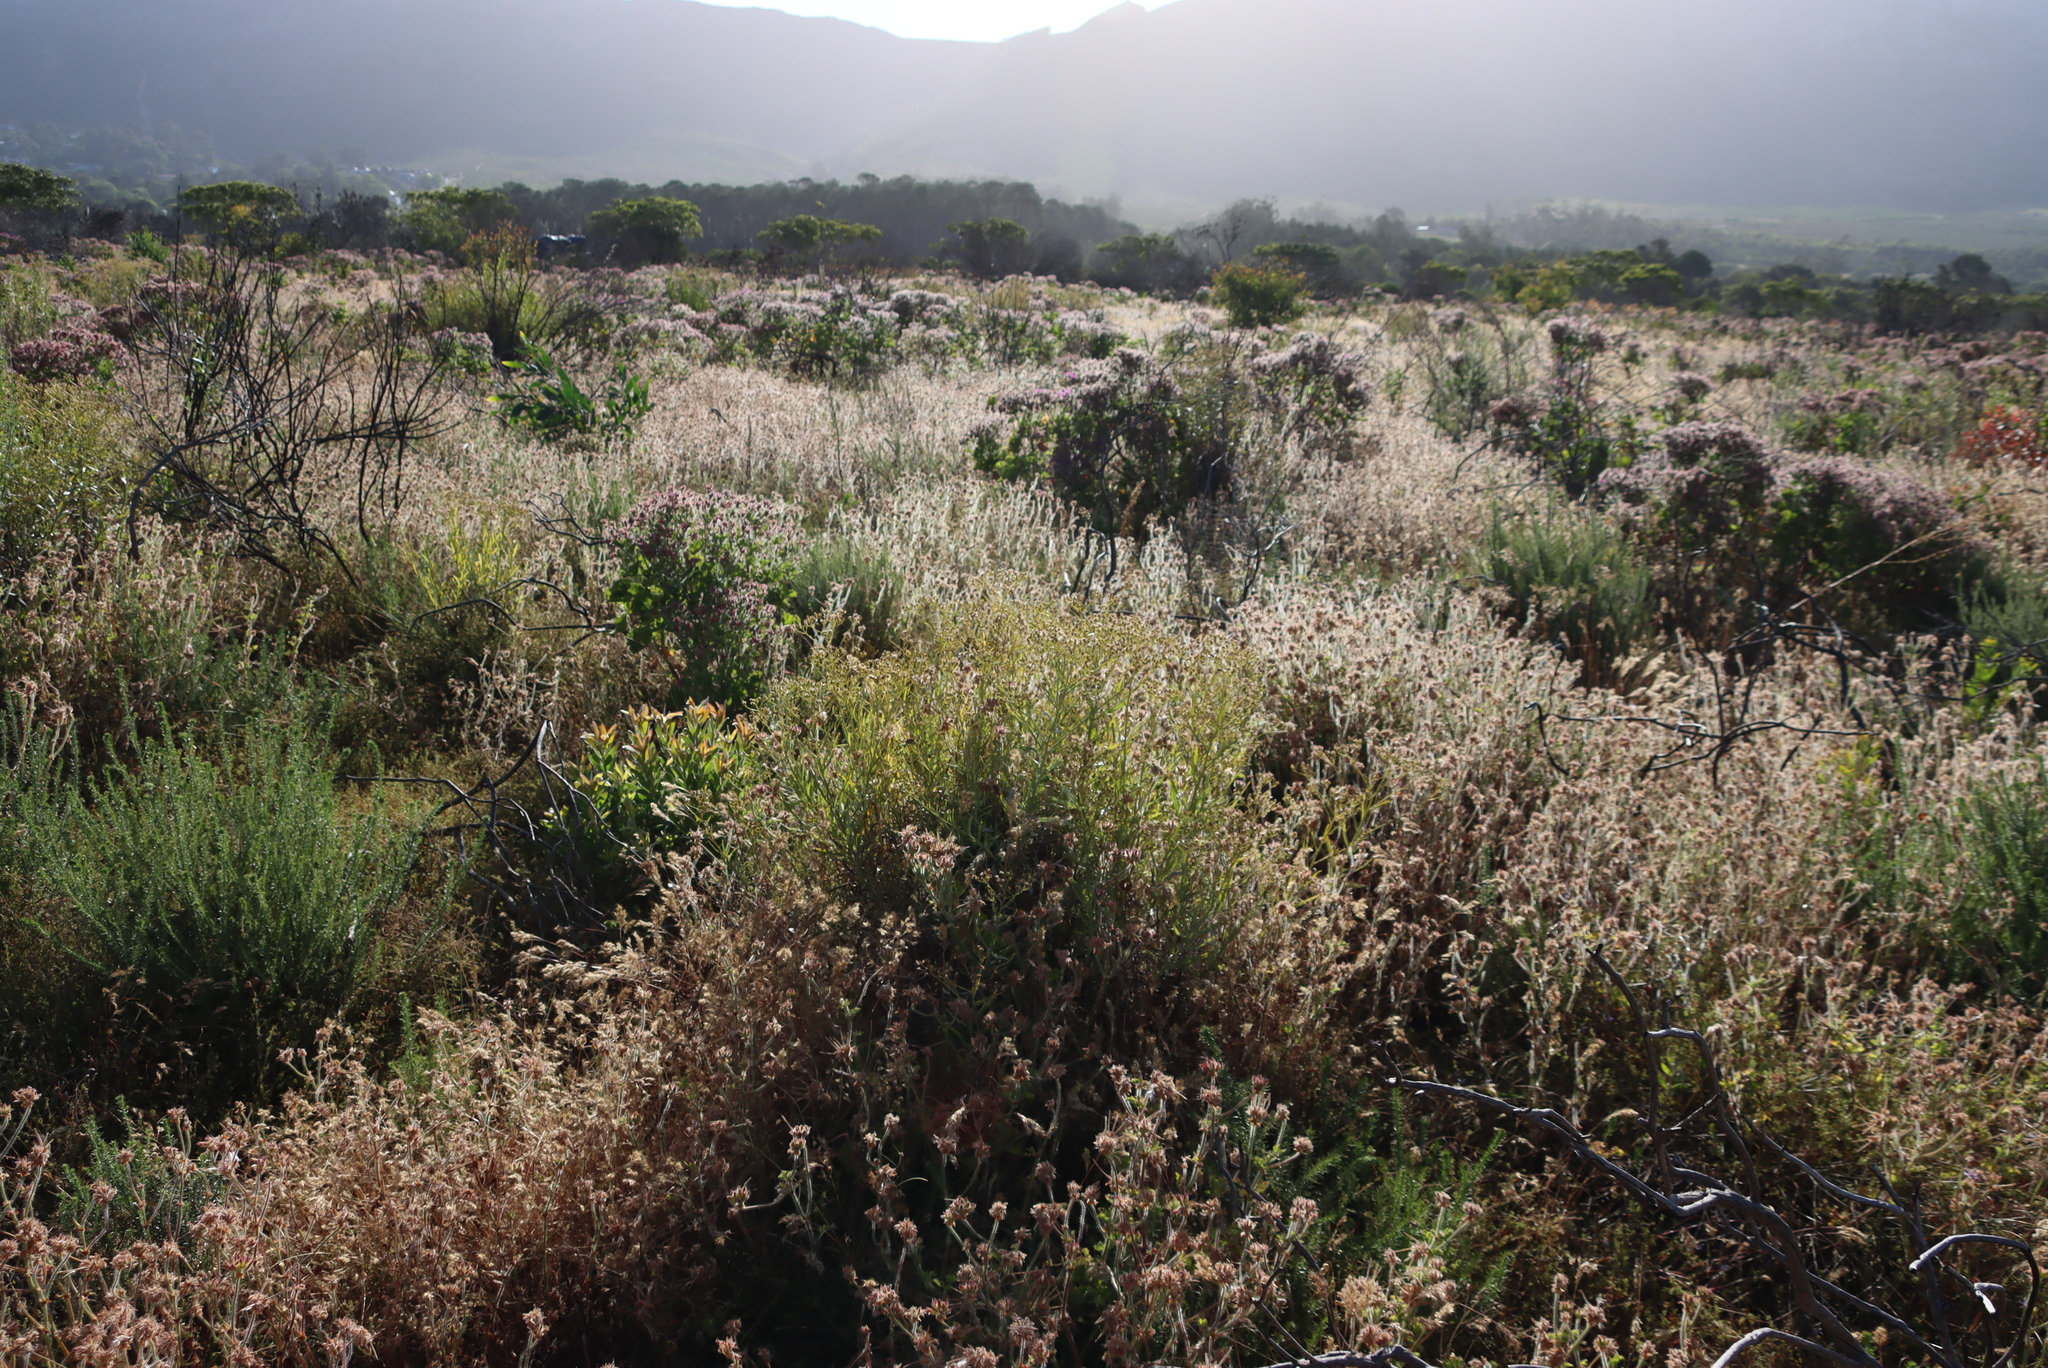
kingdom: Plantae
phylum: Tracheophyta
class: Magnoliopsida
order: Geraniales
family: Geraniaceae
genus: Pelargonium
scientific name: Pelargonium capitatum
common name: Rose scented geranium
